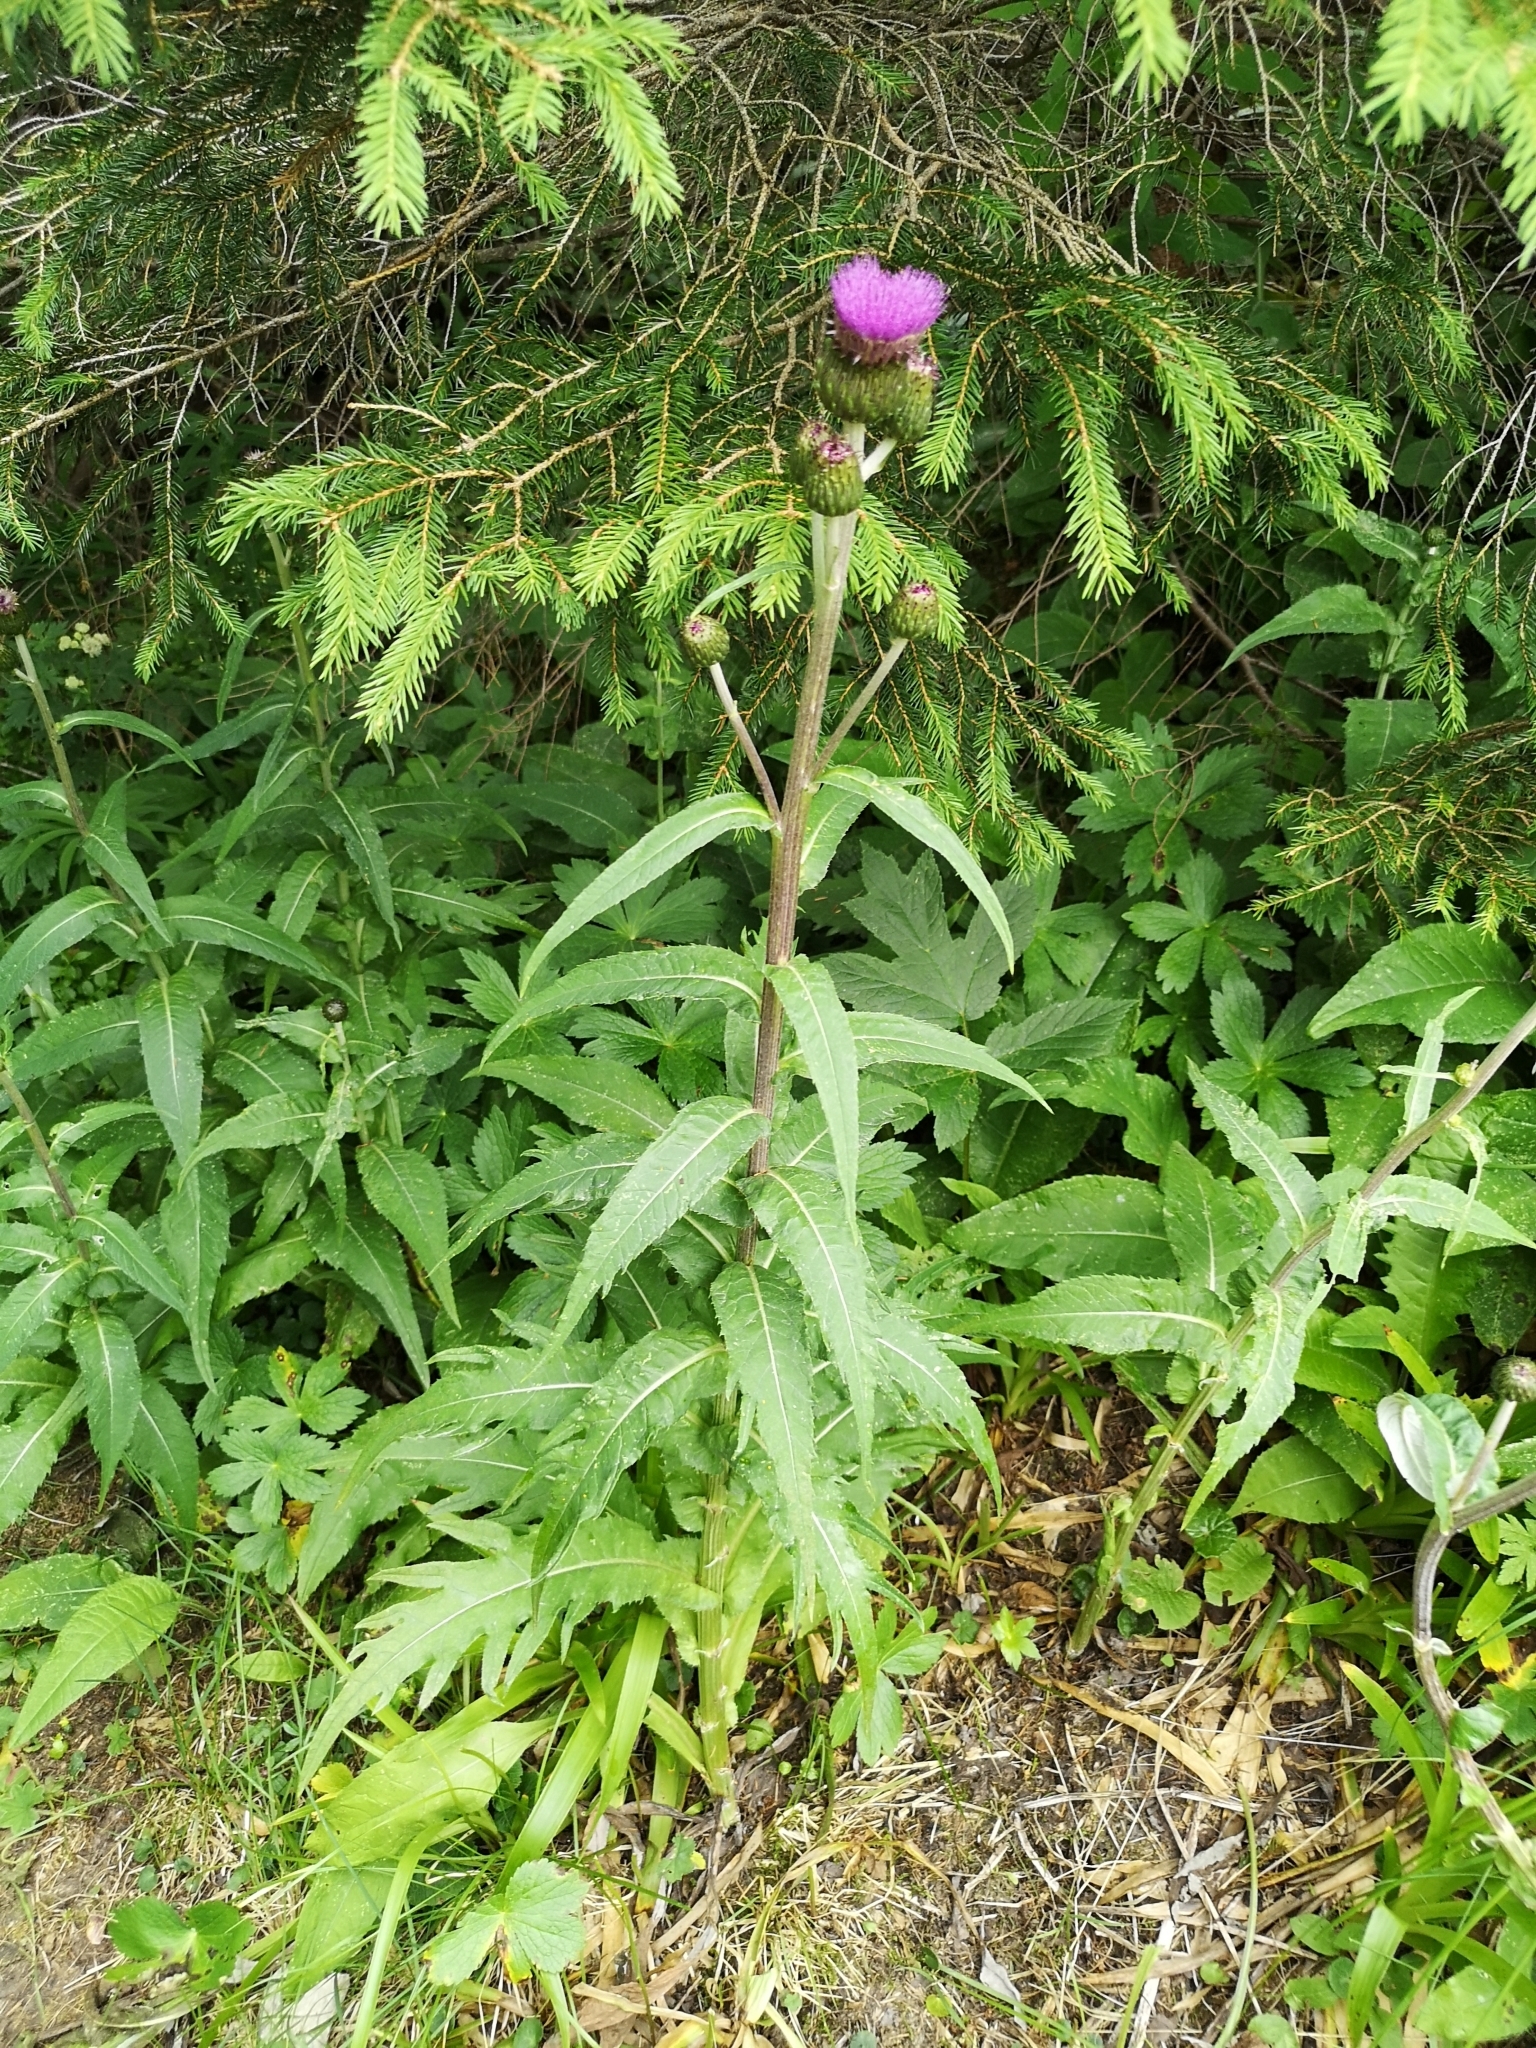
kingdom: Plantae
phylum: Tracheophyta
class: Magnoliopsida
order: Asterales
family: Asteraceae
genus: Cirsium
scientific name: Cirsium heterophyllum
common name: Melancholy thistle
